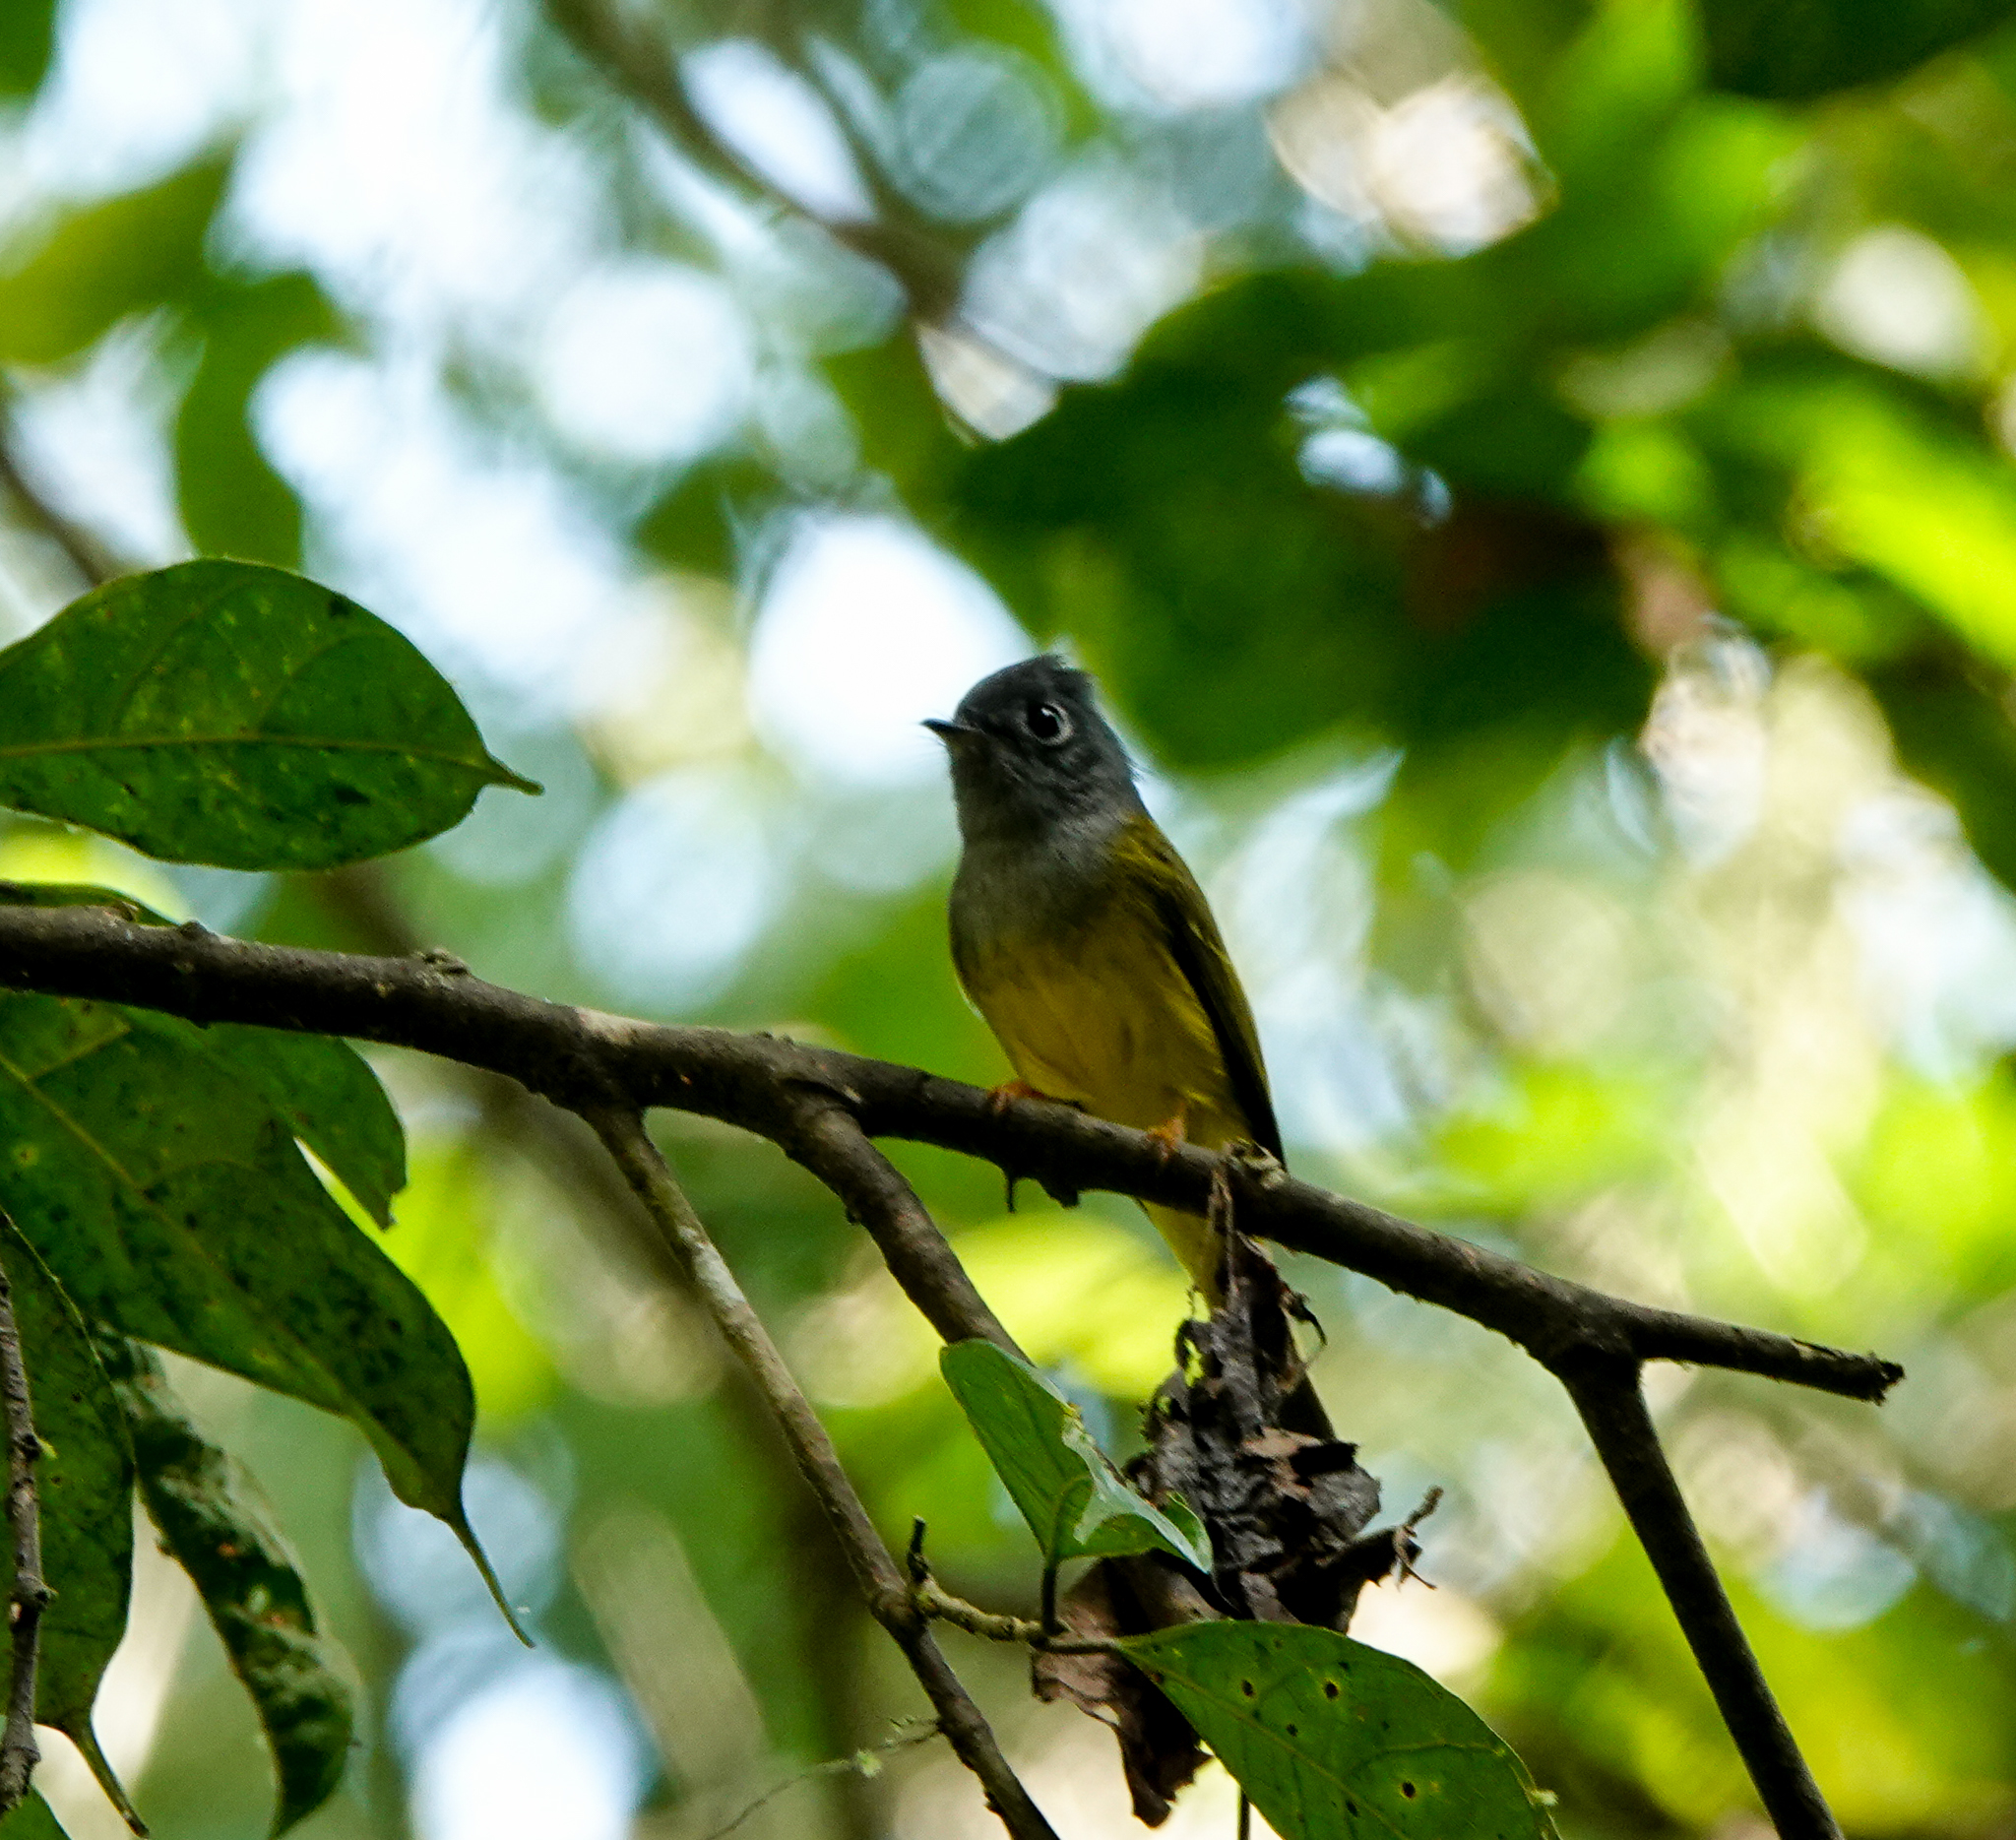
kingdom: Animalia
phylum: Chordata
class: Aves
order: Passeriformes
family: Stenostiridae
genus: Culicicapa
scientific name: Culicicapa ceylonensis
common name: Grey-headed canary-flycatcher
